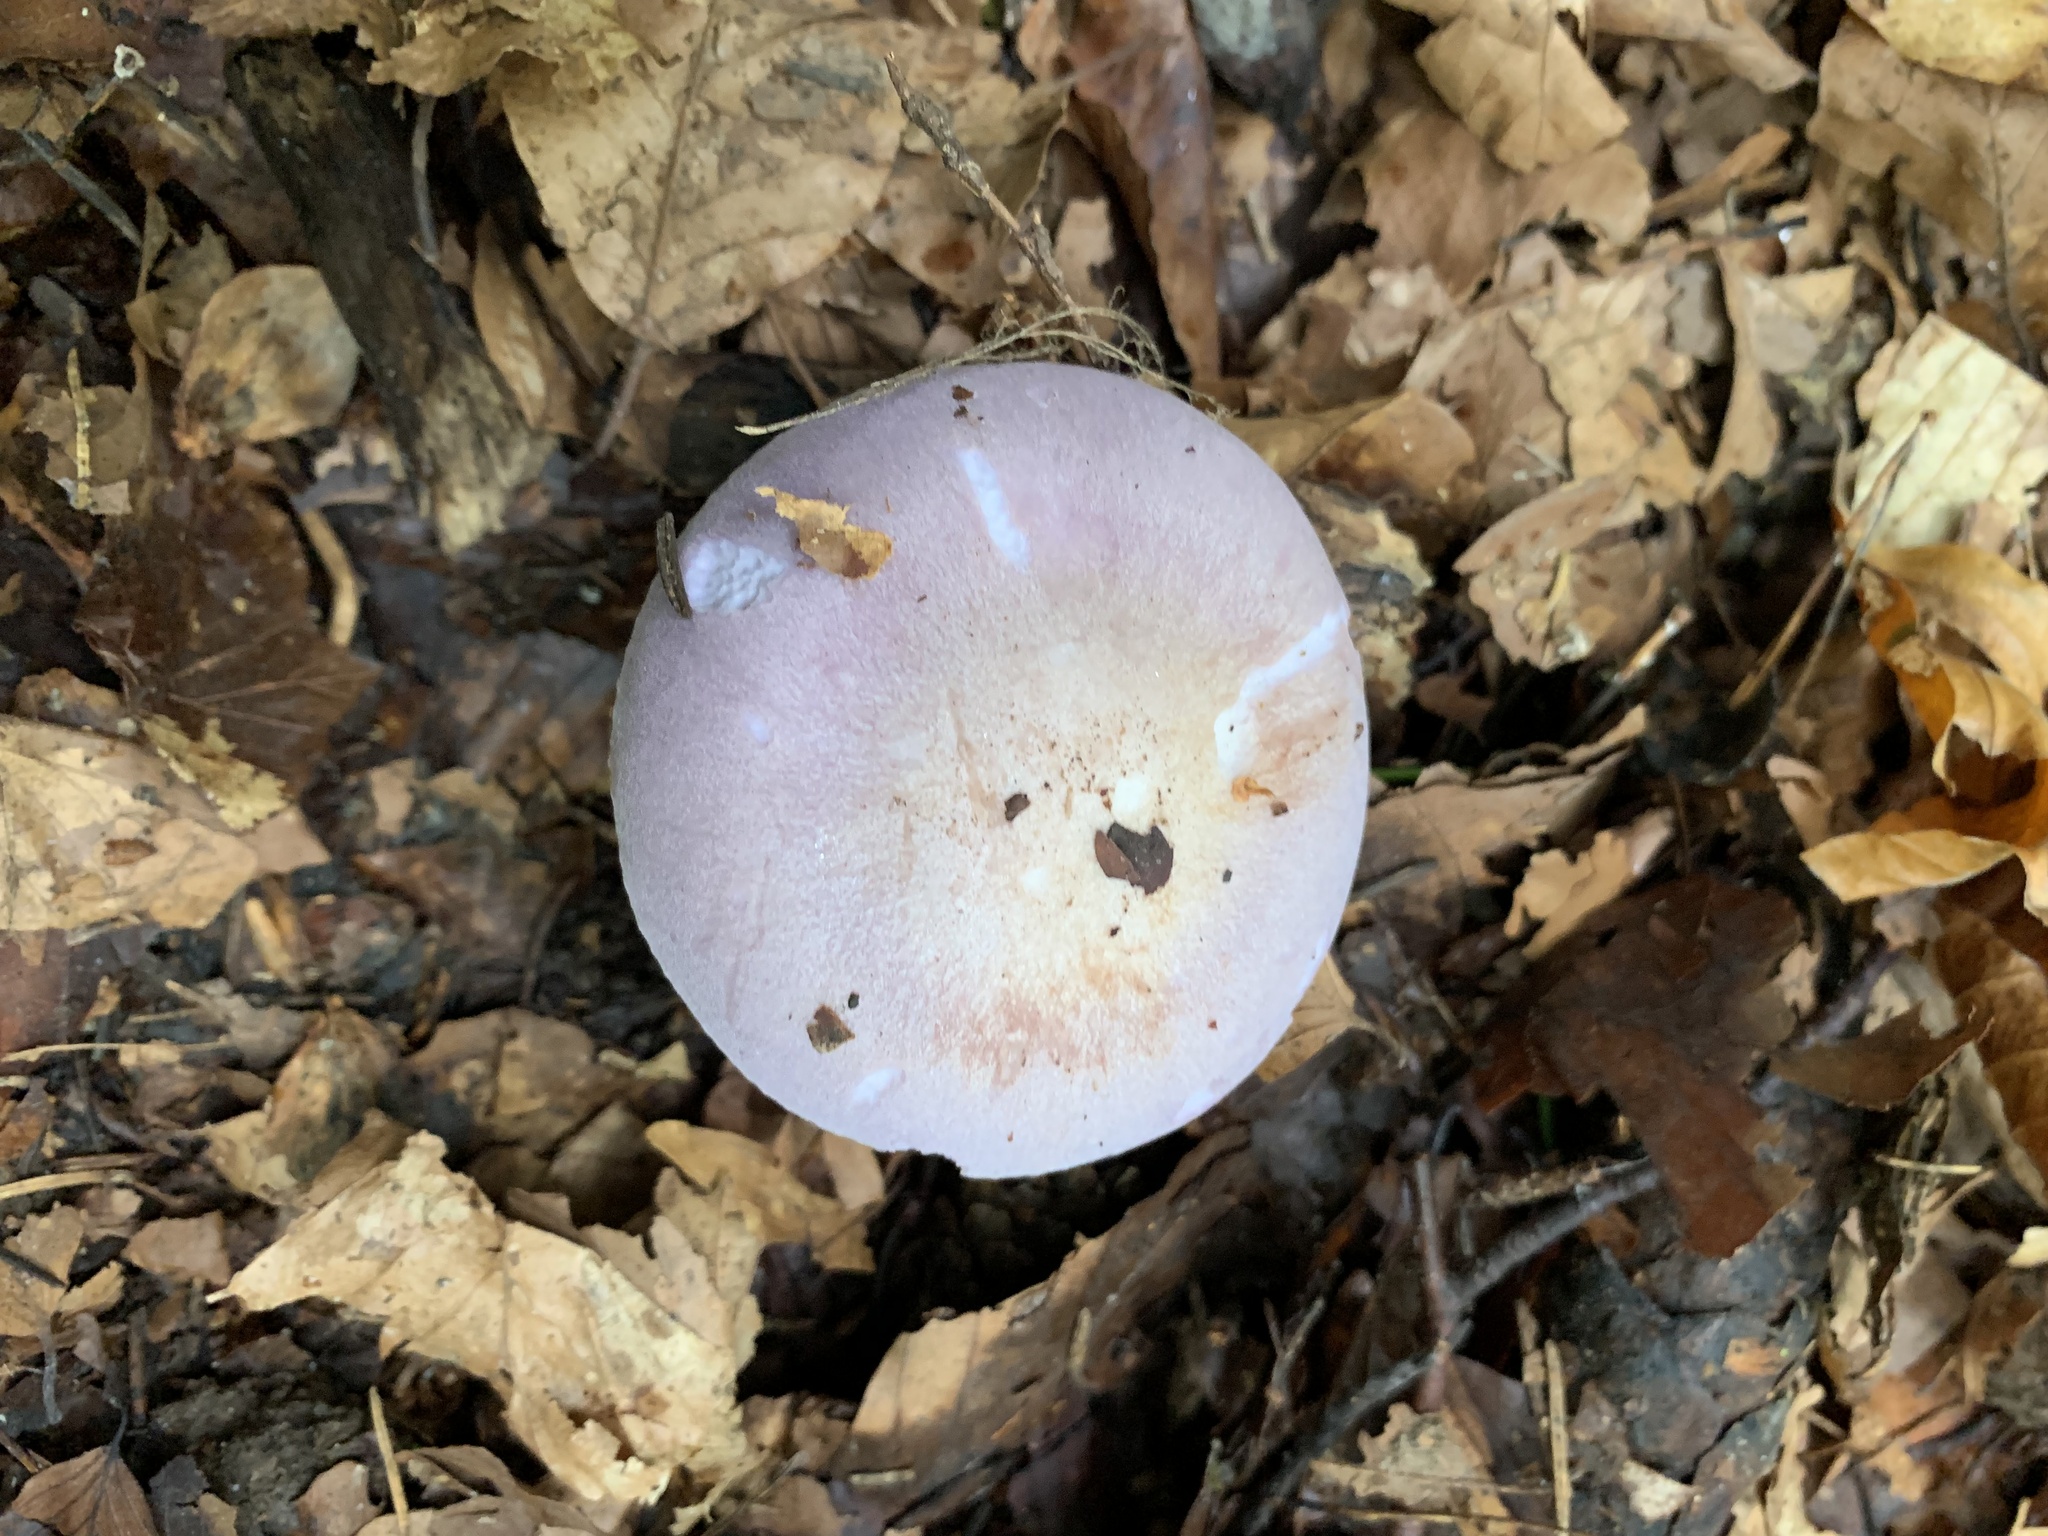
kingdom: Fungi
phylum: Basidiomycota
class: Agaricomycetes
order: Agaricales
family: Tricholomataceae
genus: Collybia
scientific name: Collybia
